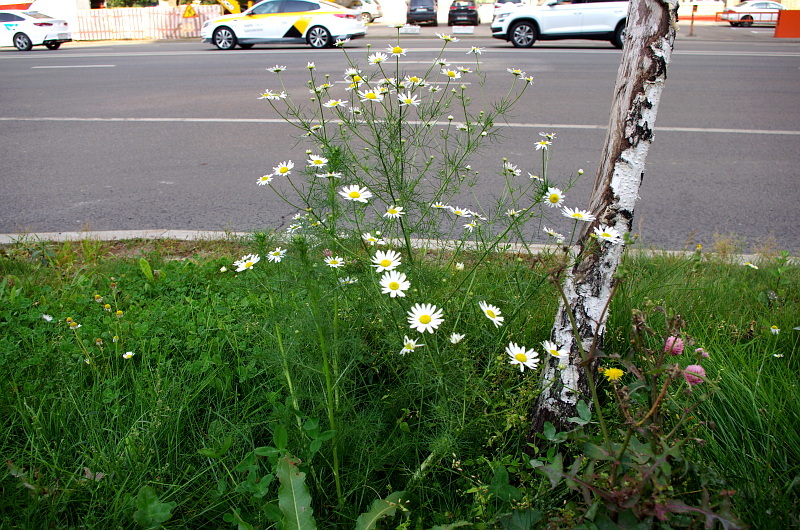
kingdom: Plantae
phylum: Tracheophyta
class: Magnoliopsida
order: Asterales
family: Asteraceae
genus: Tripleurospermum
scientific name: Tripleurospermum inodorum
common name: Scentless mayweed
